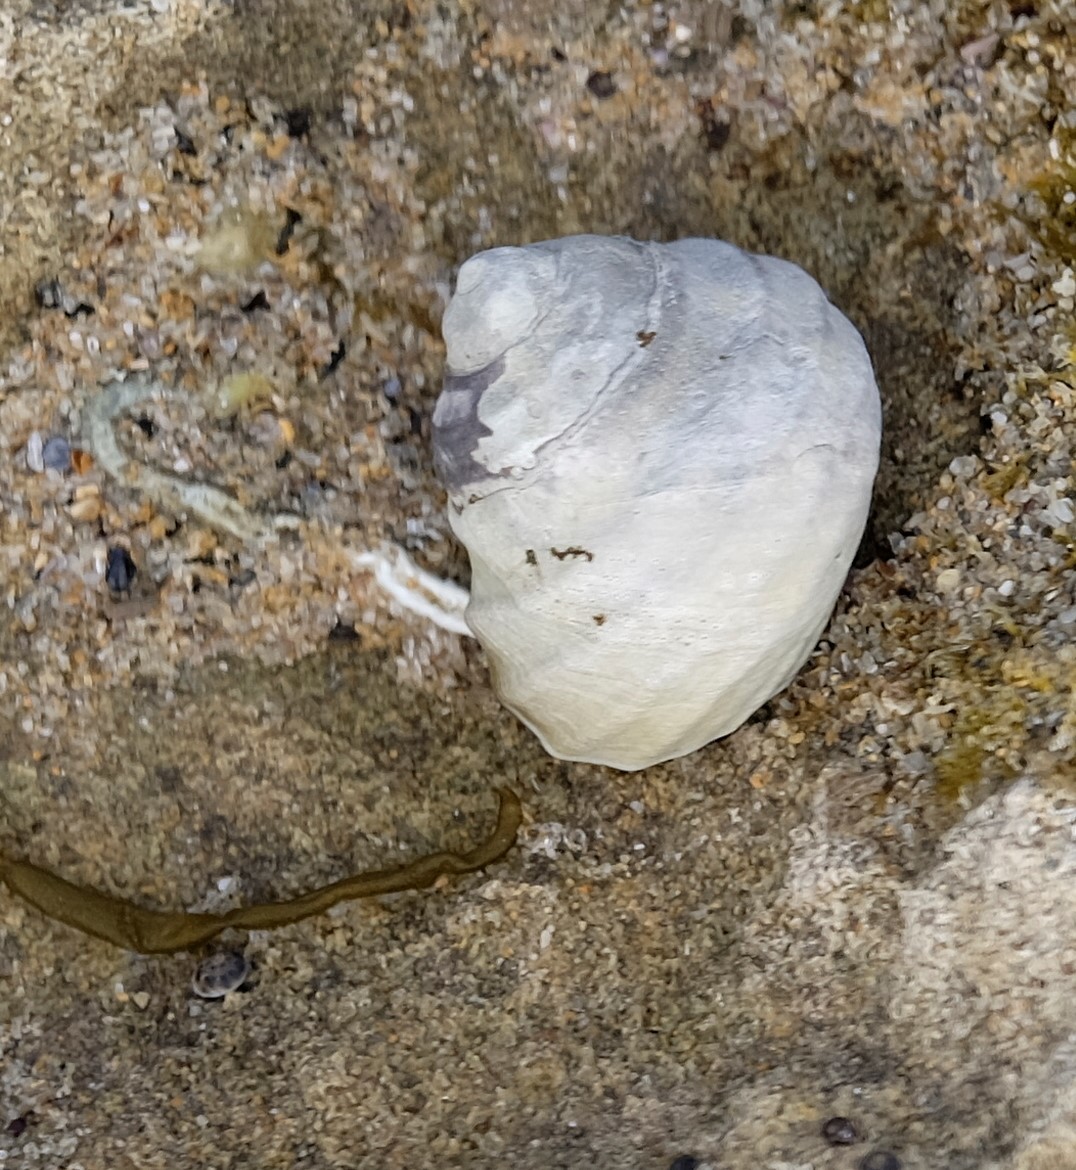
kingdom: Animalia
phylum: Mollusca
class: Gastropoda
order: Trochida
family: Trochidae
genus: Austrocochlea
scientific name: Austrocochlea constricta
